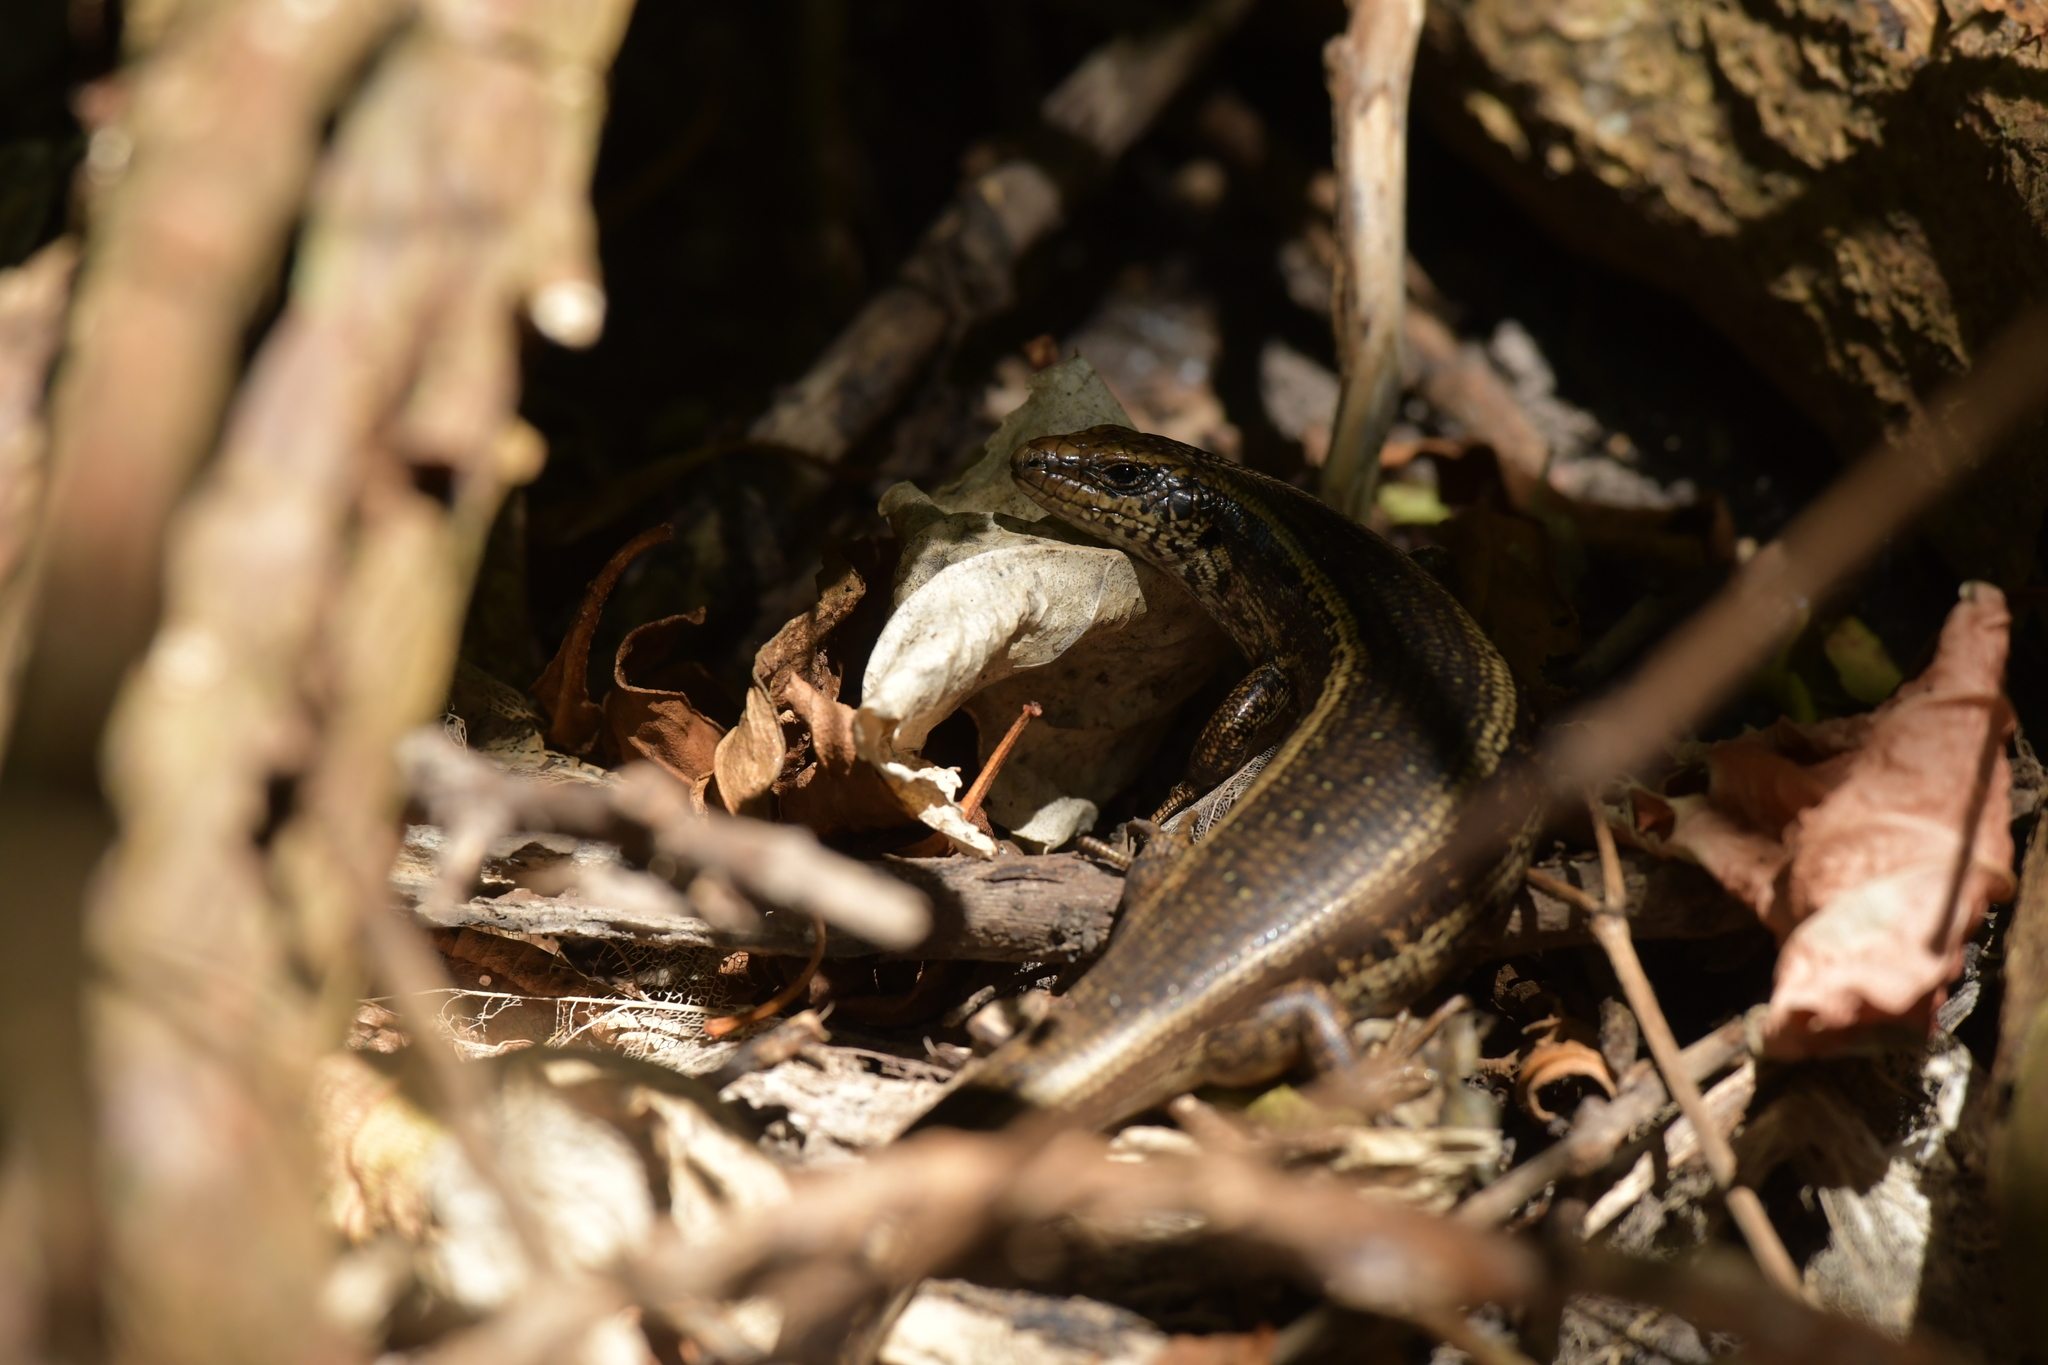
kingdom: Animalia
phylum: Chordata
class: Squamata
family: Scincidae
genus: Oligosoma
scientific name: Oligosoma kokowai
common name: Northern spotted skink
